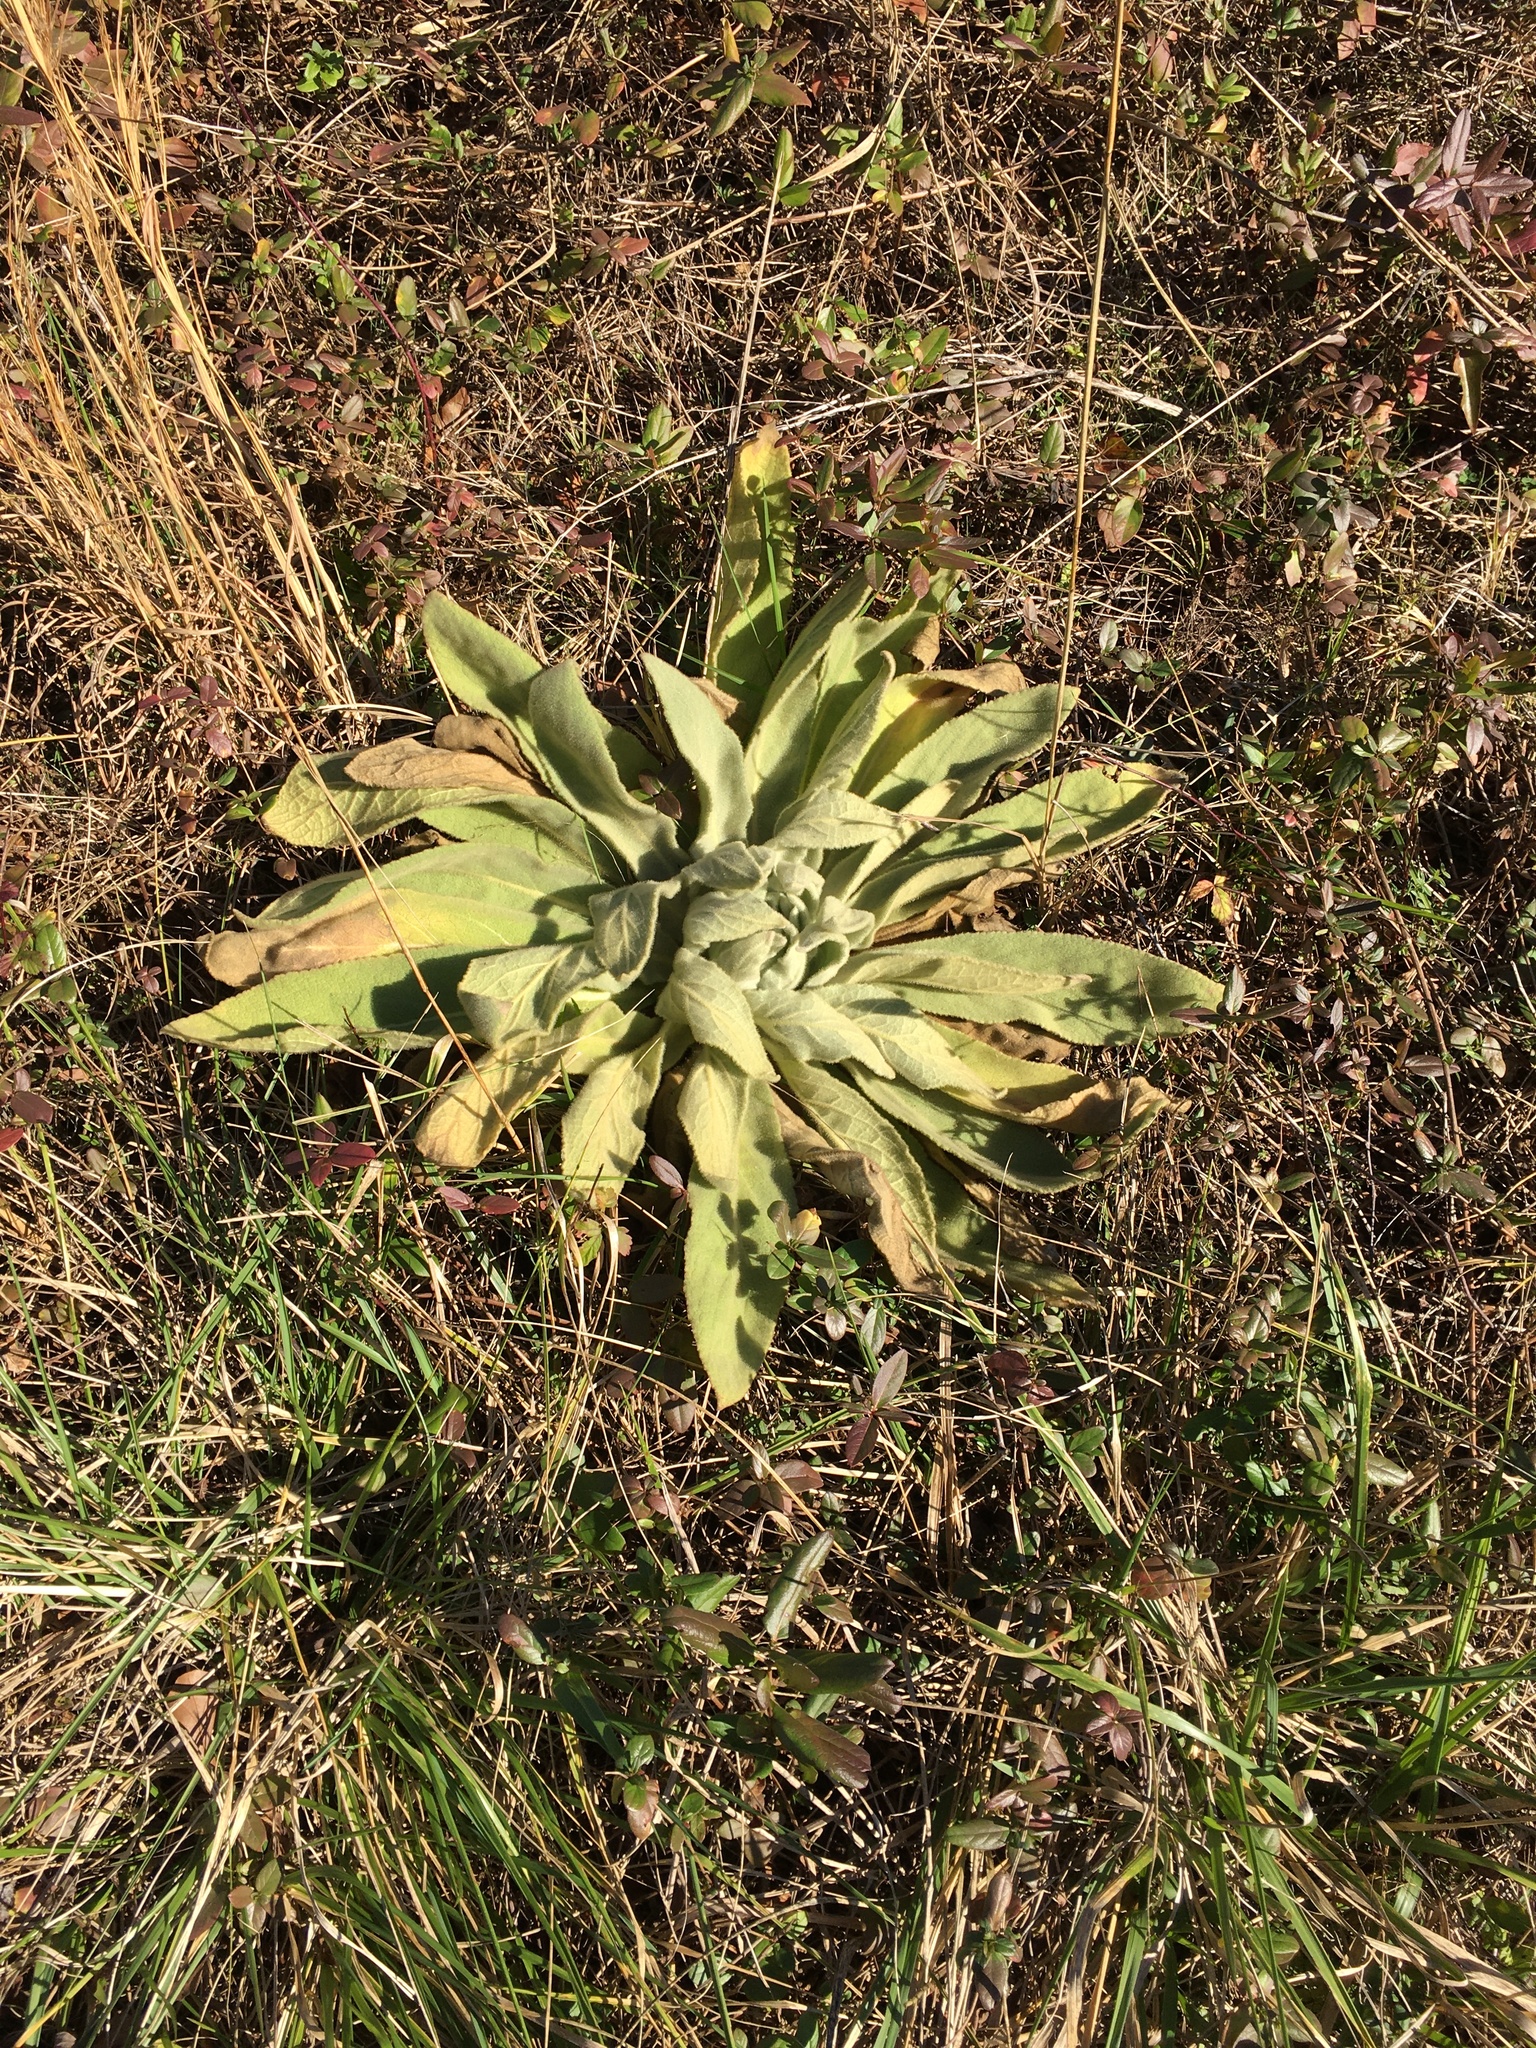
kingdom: Plantae
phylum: Tracheophyta
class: Magnoliopsida
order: Lamiales
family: Scrophulariaceae
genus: Verbascum
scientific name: Verbascum thapsus
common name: Common mullein
